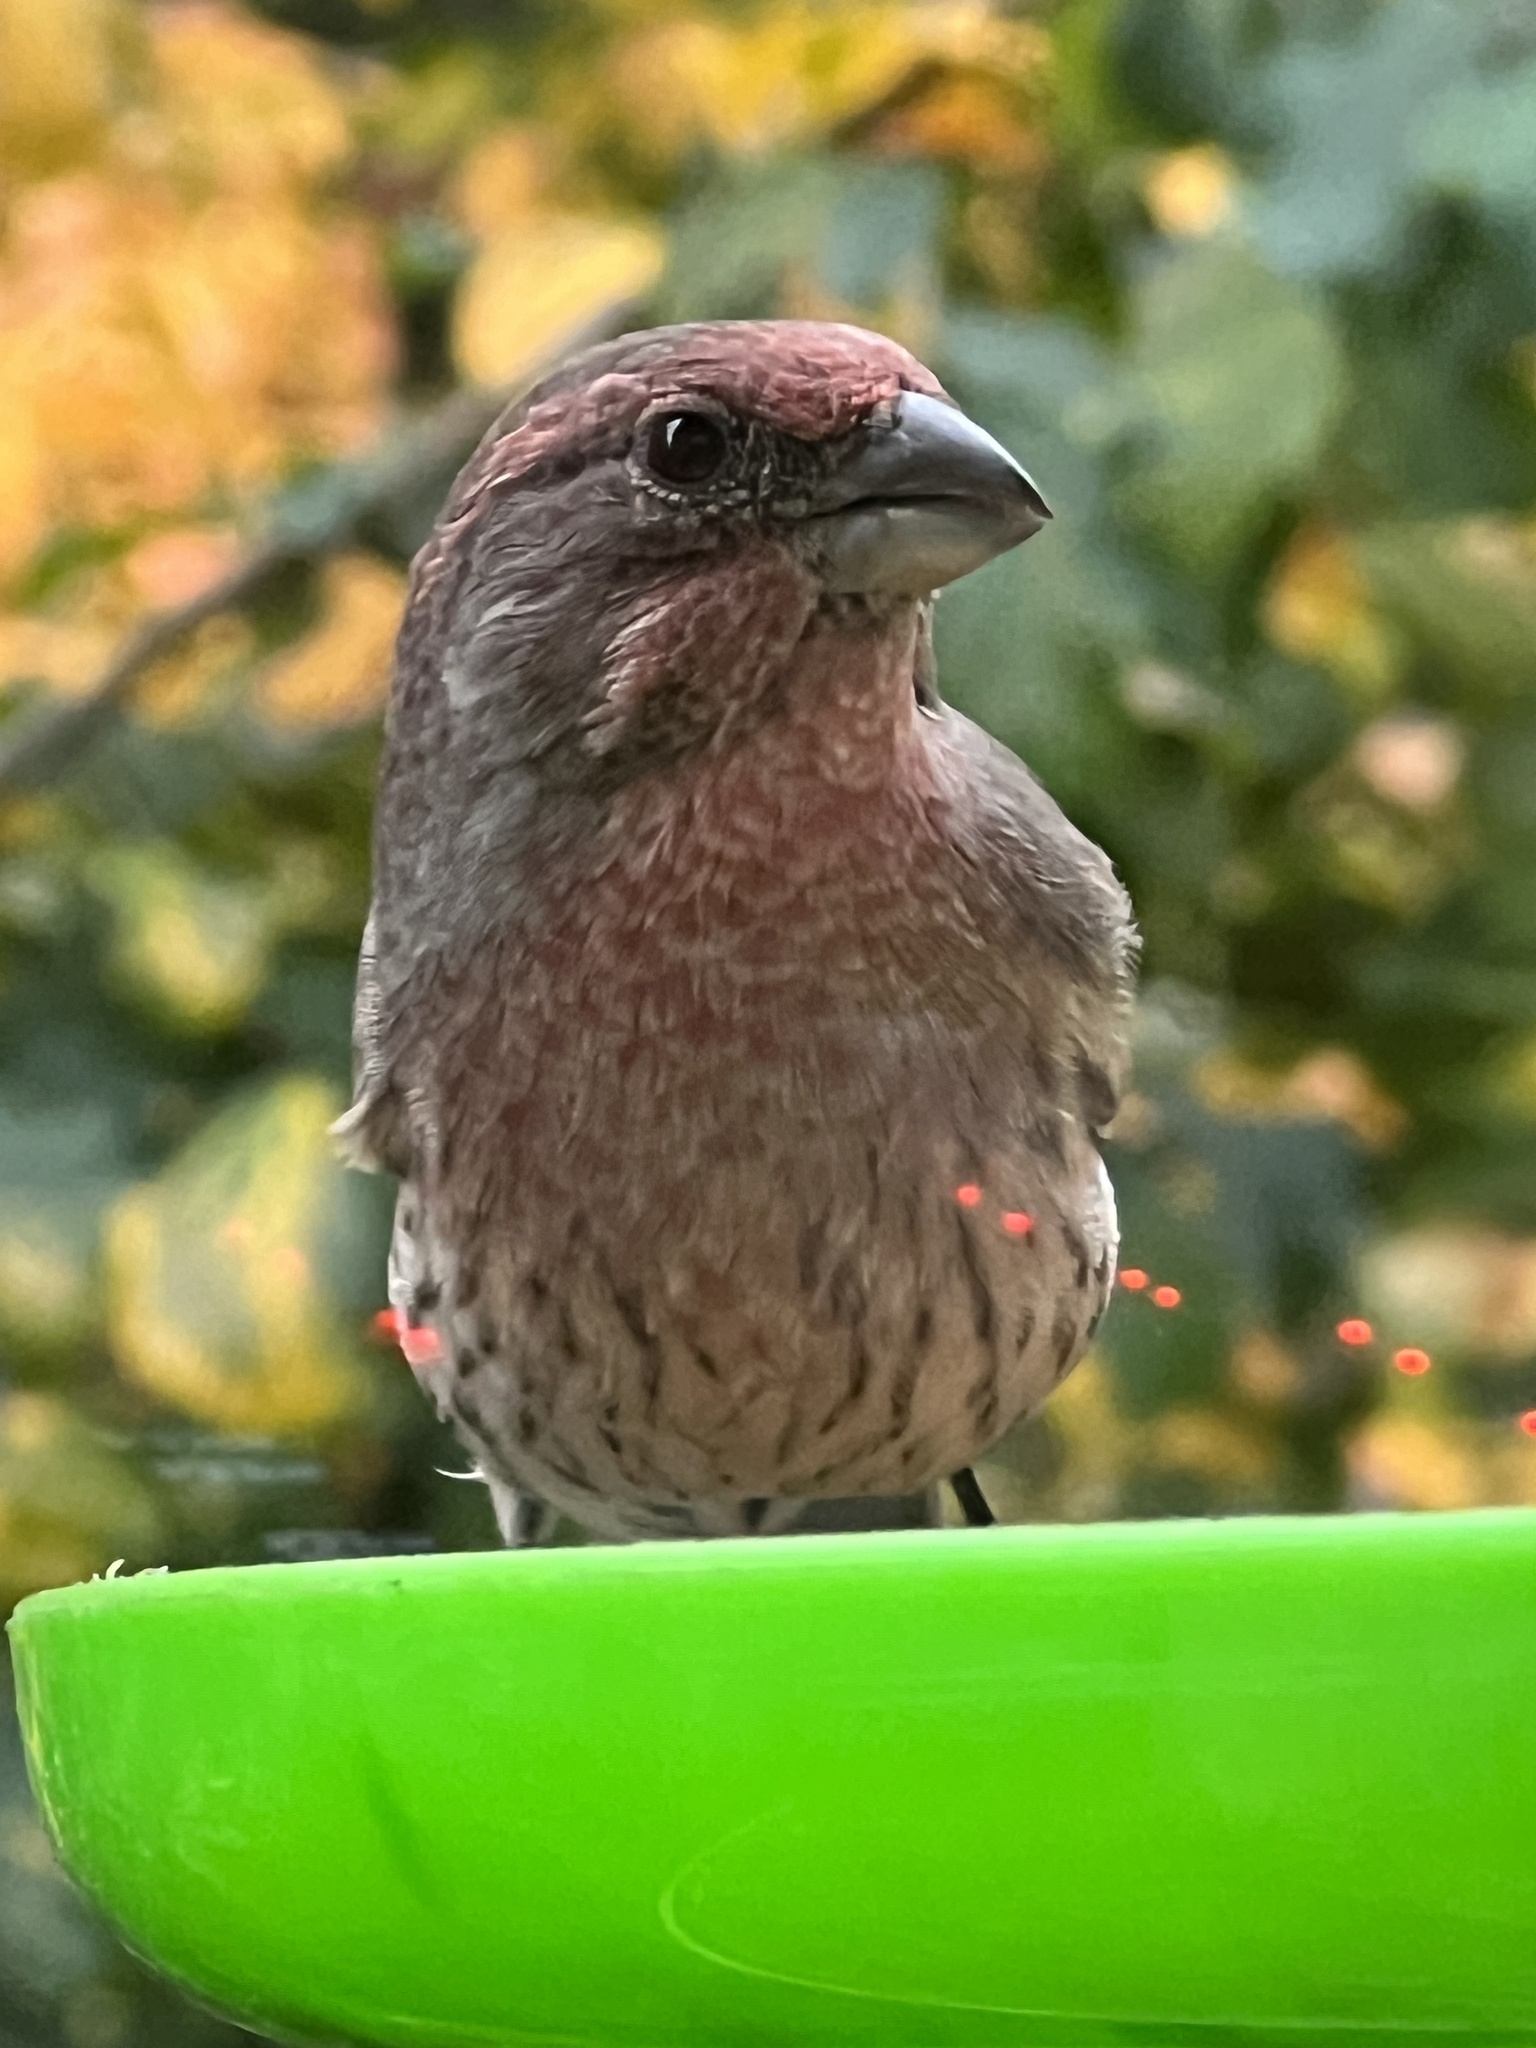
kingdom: Animalia
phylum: Chordata
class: Aves
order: Passeriformes
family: Fringillidae
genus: Haemorhous
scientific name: Haemorhous mexicanus
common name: House finch
